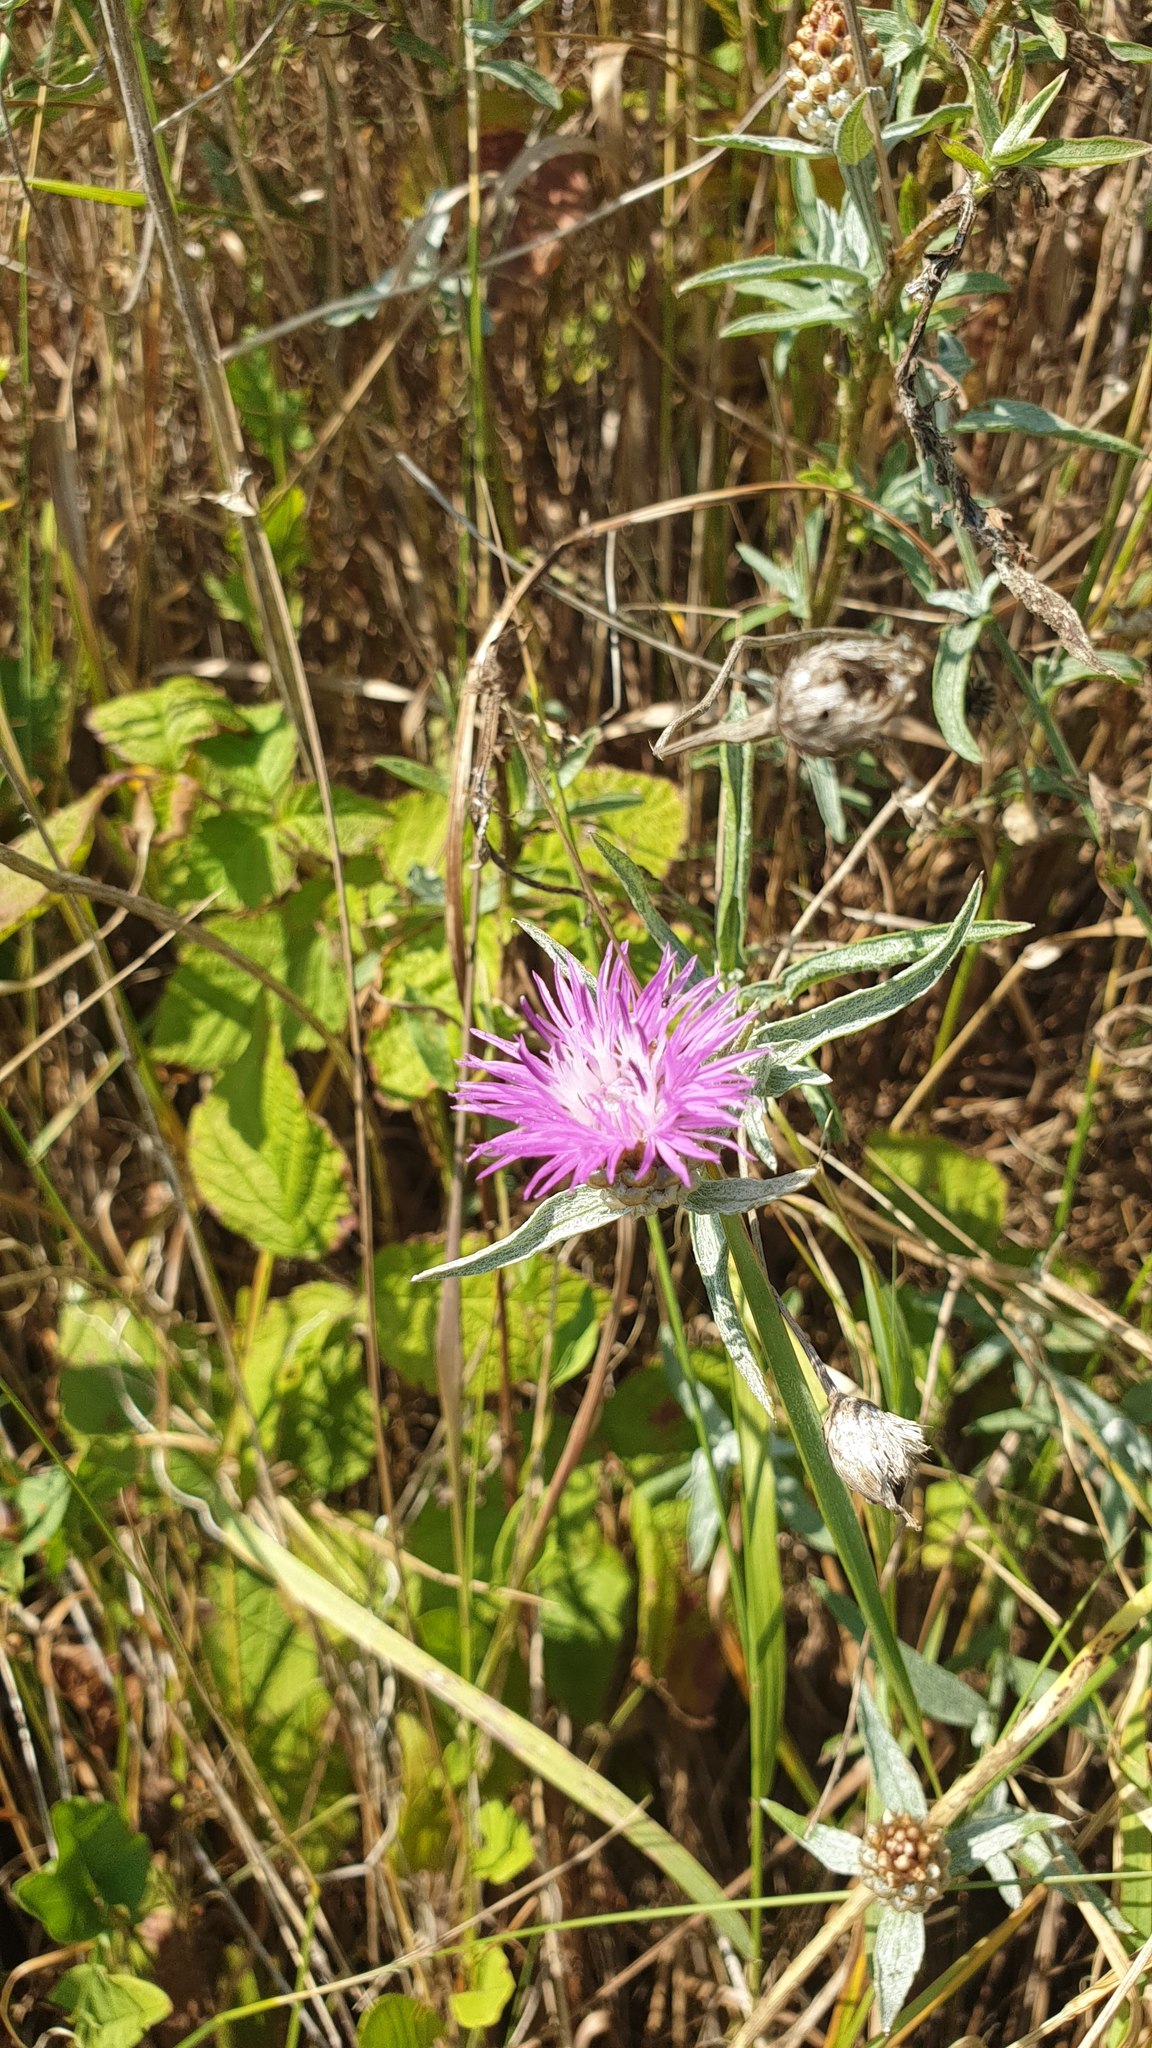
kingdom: Plantae
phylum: Tracheophyta
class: Magnoliopsida
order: Asterales
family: Asteraceae
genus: Centaurea
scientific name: Centaurea jacea
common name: Brown knapweed
